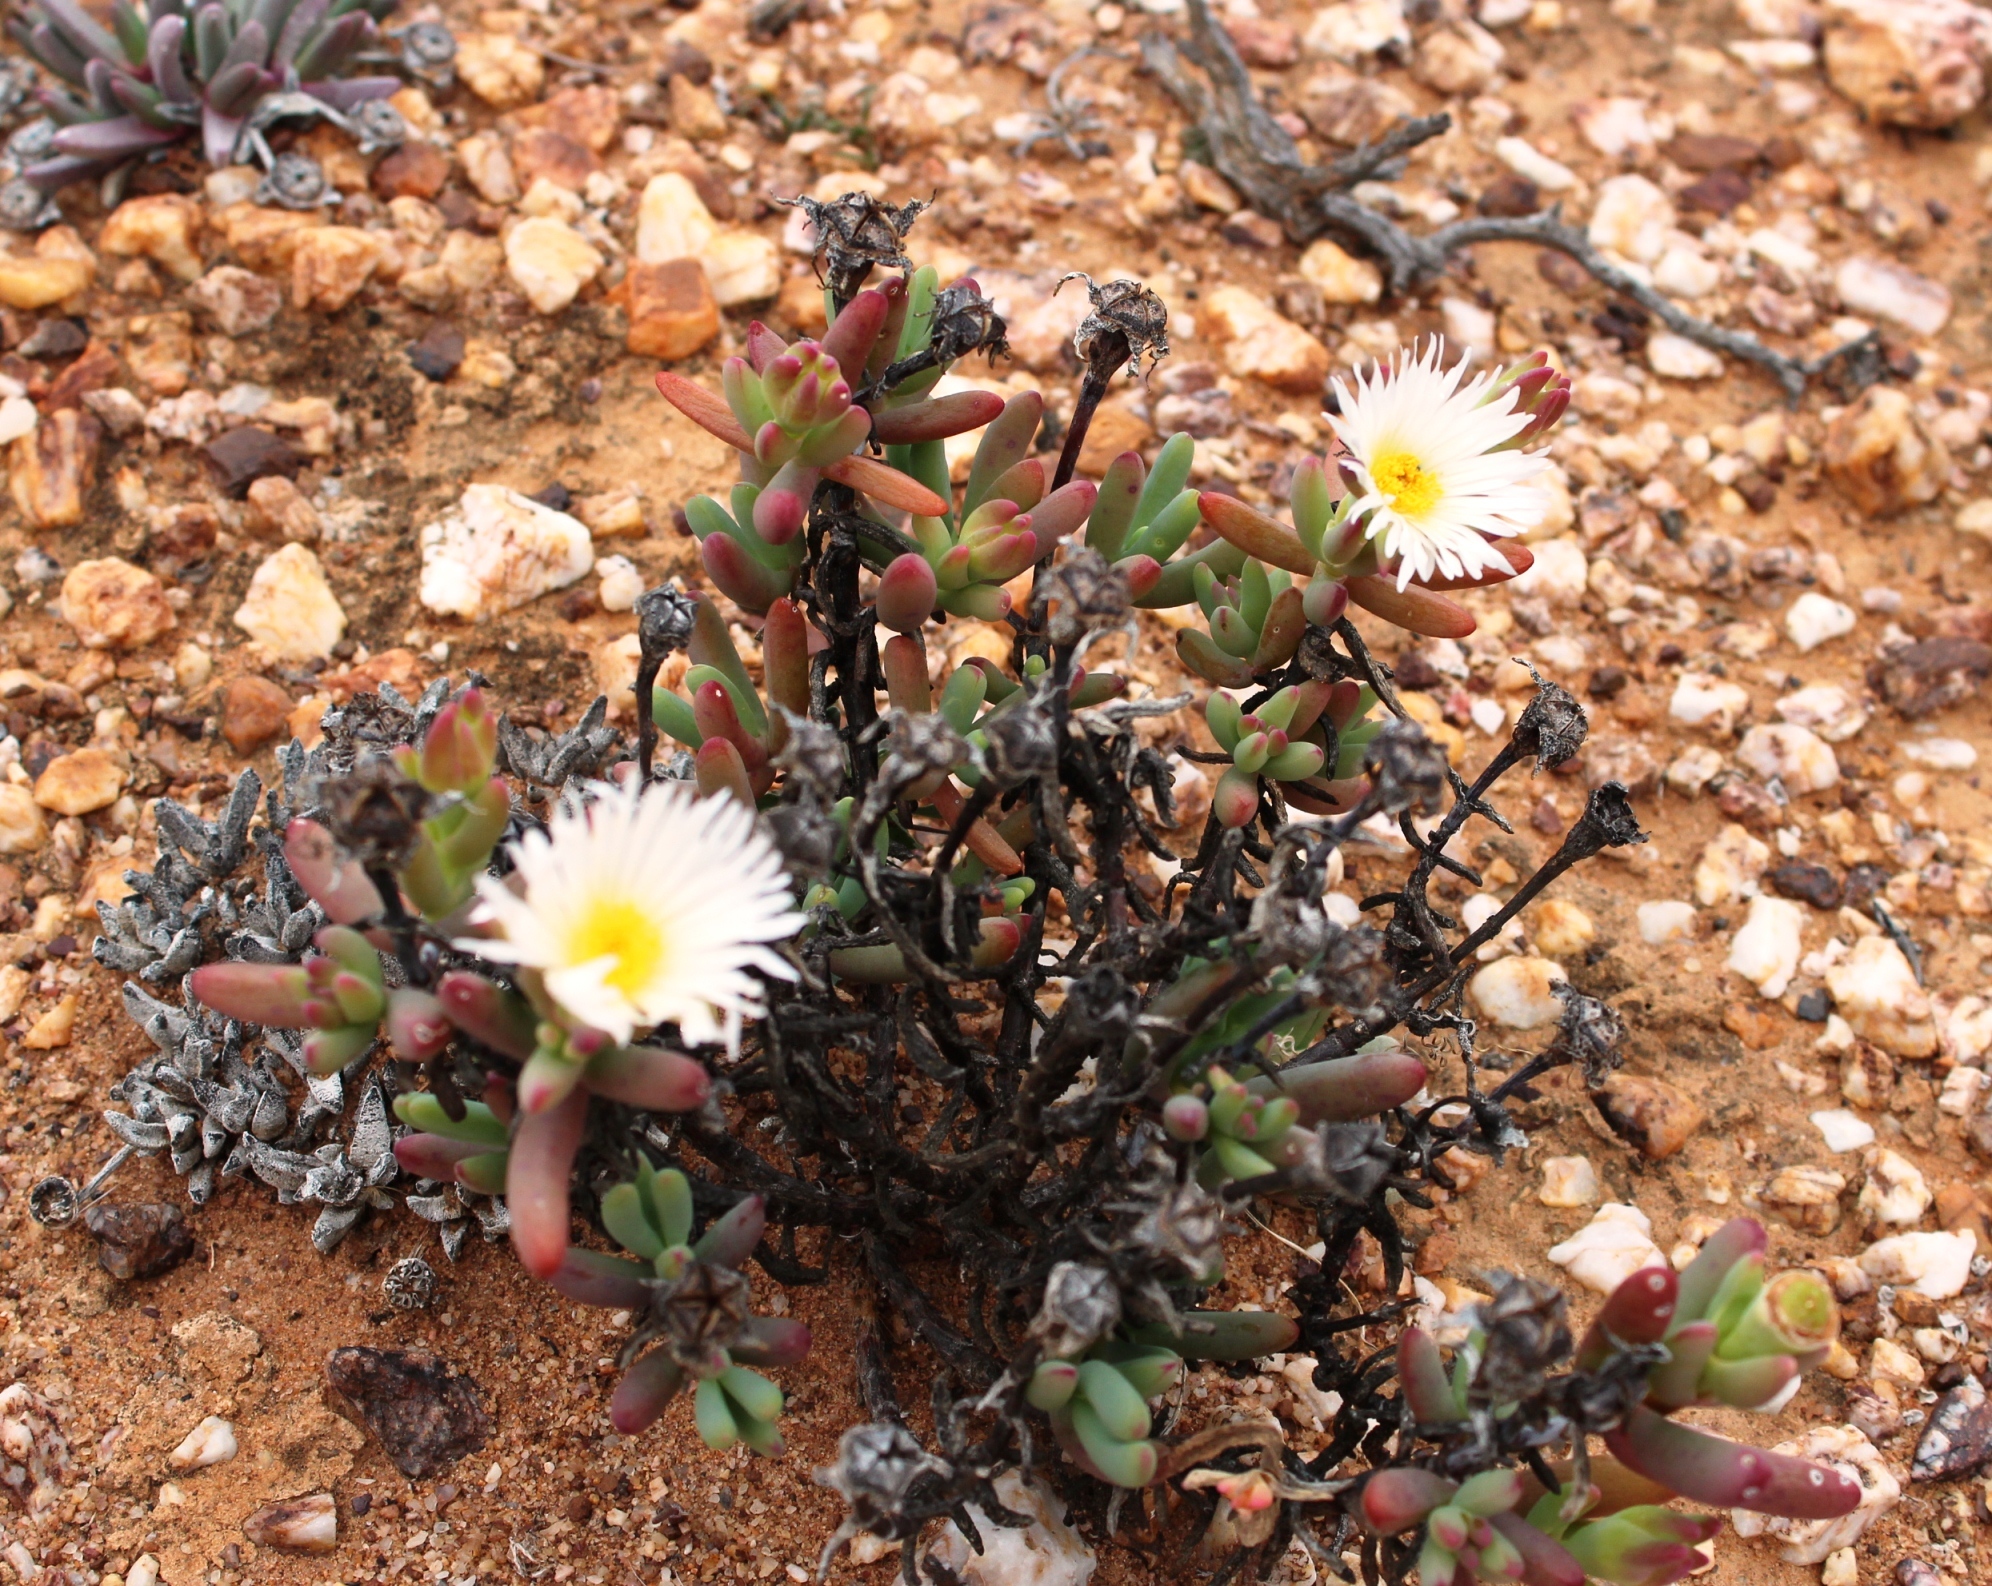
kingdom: Plantae
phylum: Tracheophyta
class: Magnoliopsida
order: Caryophyllales
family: Aizoaceae
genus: Lampranthus
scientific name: Lampranthus watermeyeri
